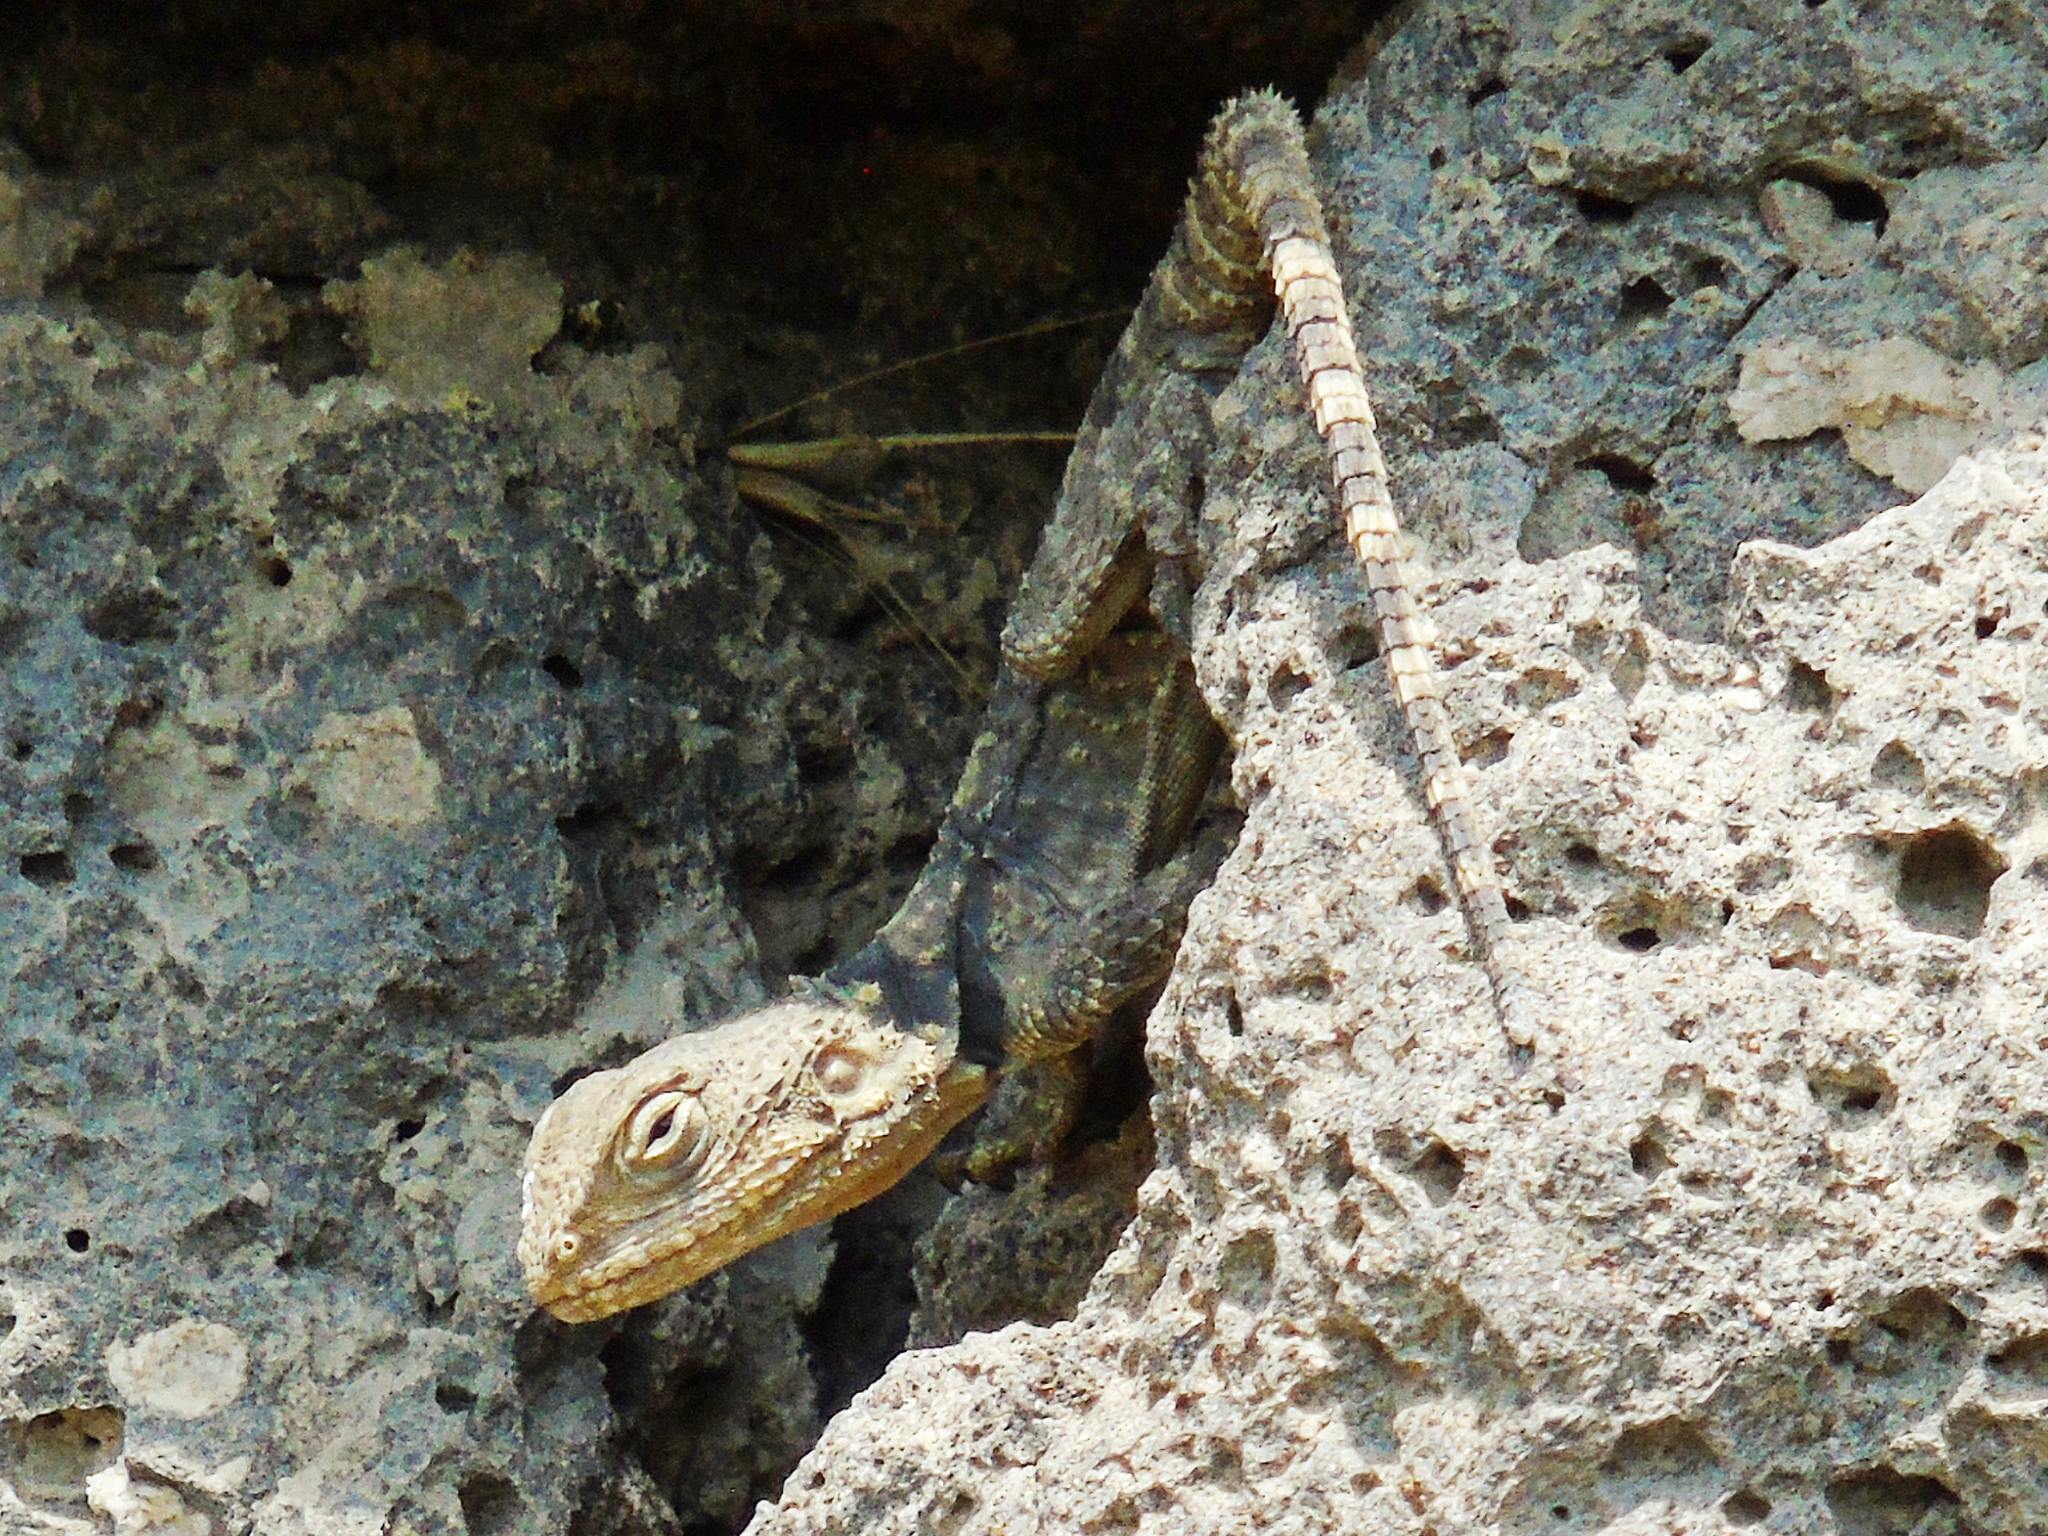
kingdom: Animalia
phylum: Chordata
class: Squamata
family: Agamidae
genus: Stellagama
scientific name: Stellagama stellio
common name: Starred agama
